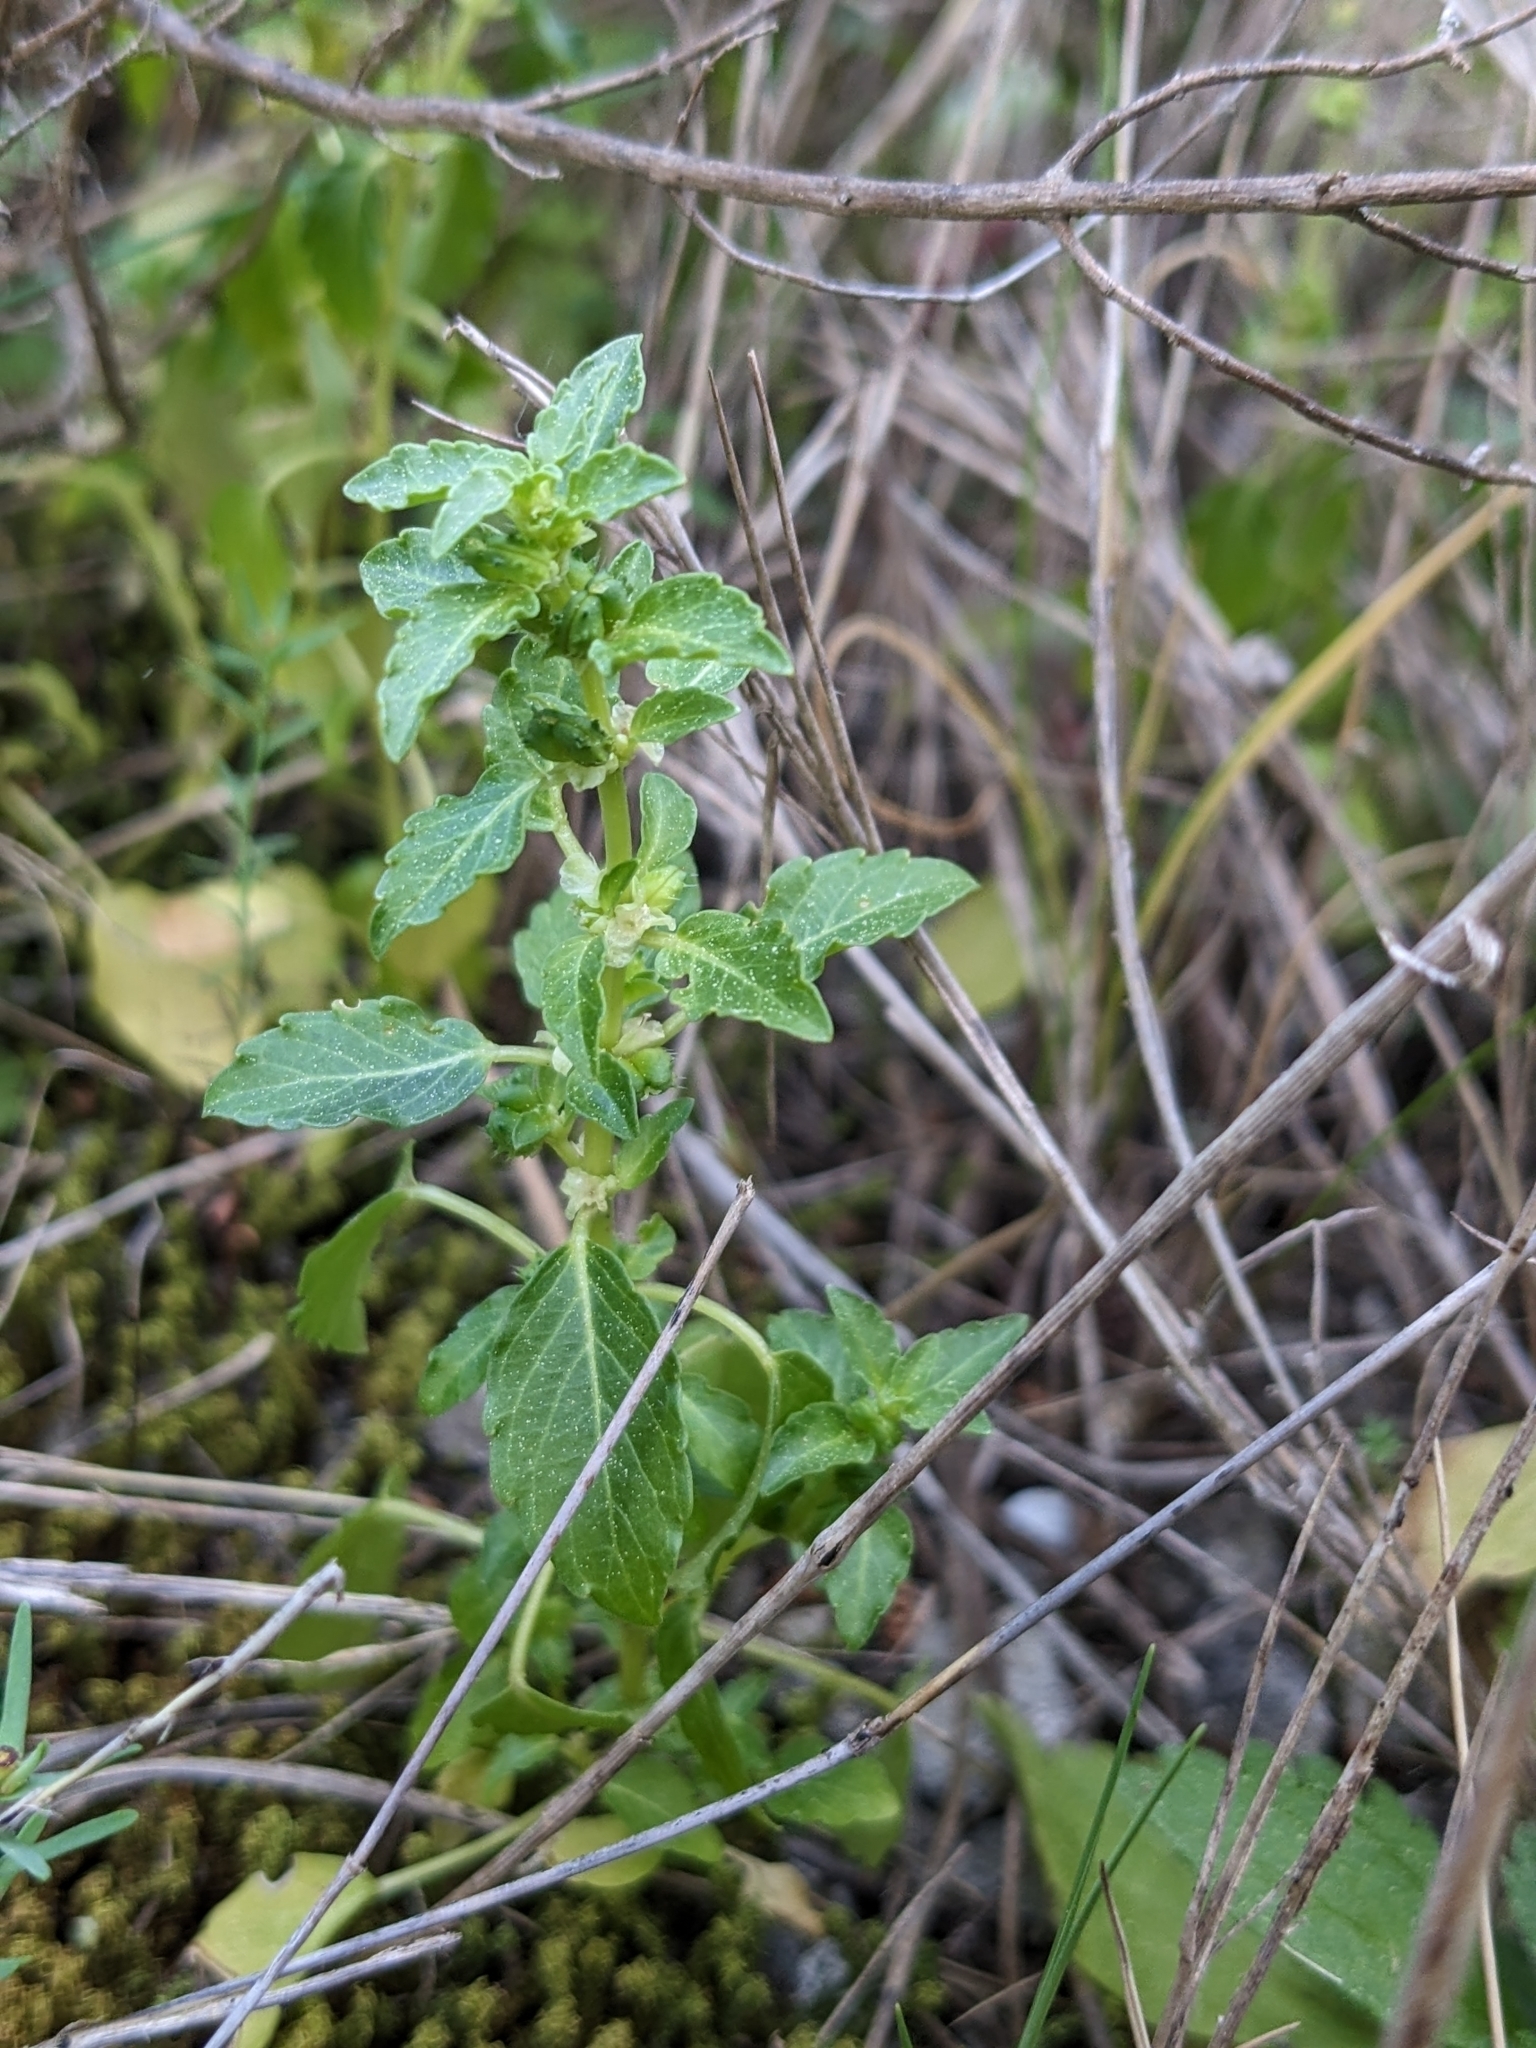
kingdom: Plantae
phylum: Tracheophyta
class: Magnoliopsida
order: Malpighiales
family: Euphorbiaceae
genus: Mercurialis
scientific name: Mercurialis huetii
